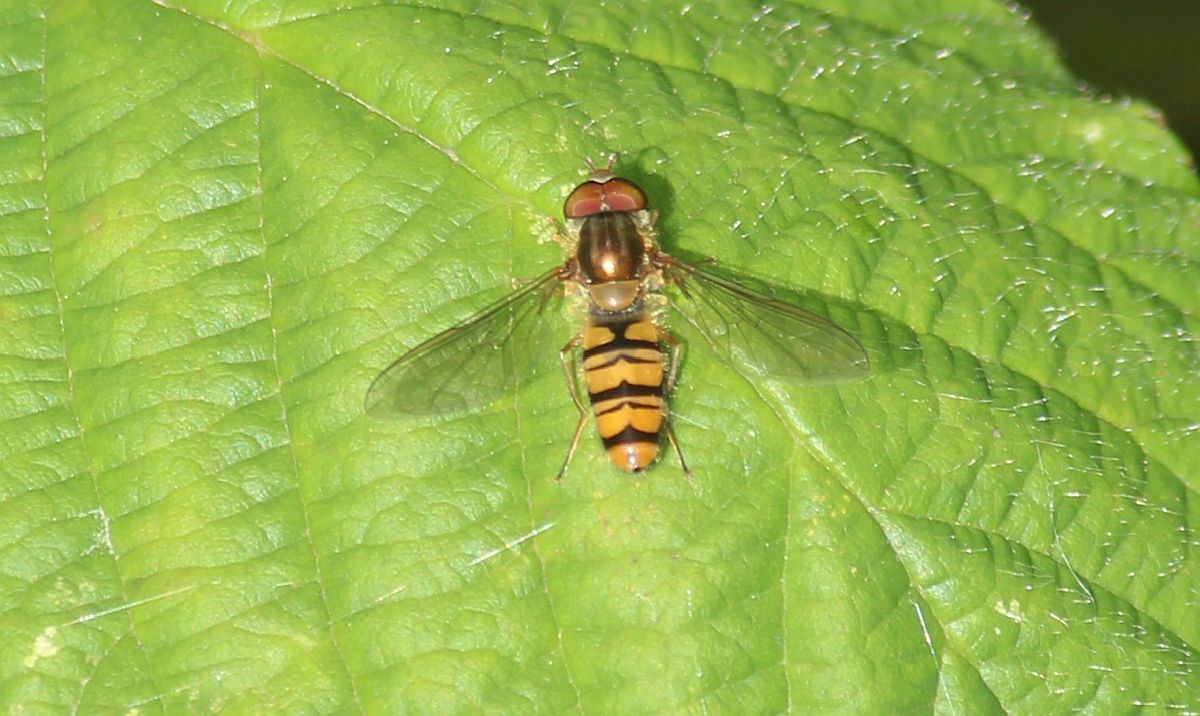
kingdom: Animalia
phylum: Arthropoda
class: Insecta
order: Diptera
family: Syrphidae
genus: Episyrphus
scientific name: Episyrphus balteatus
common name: Marmalade hoverfly
